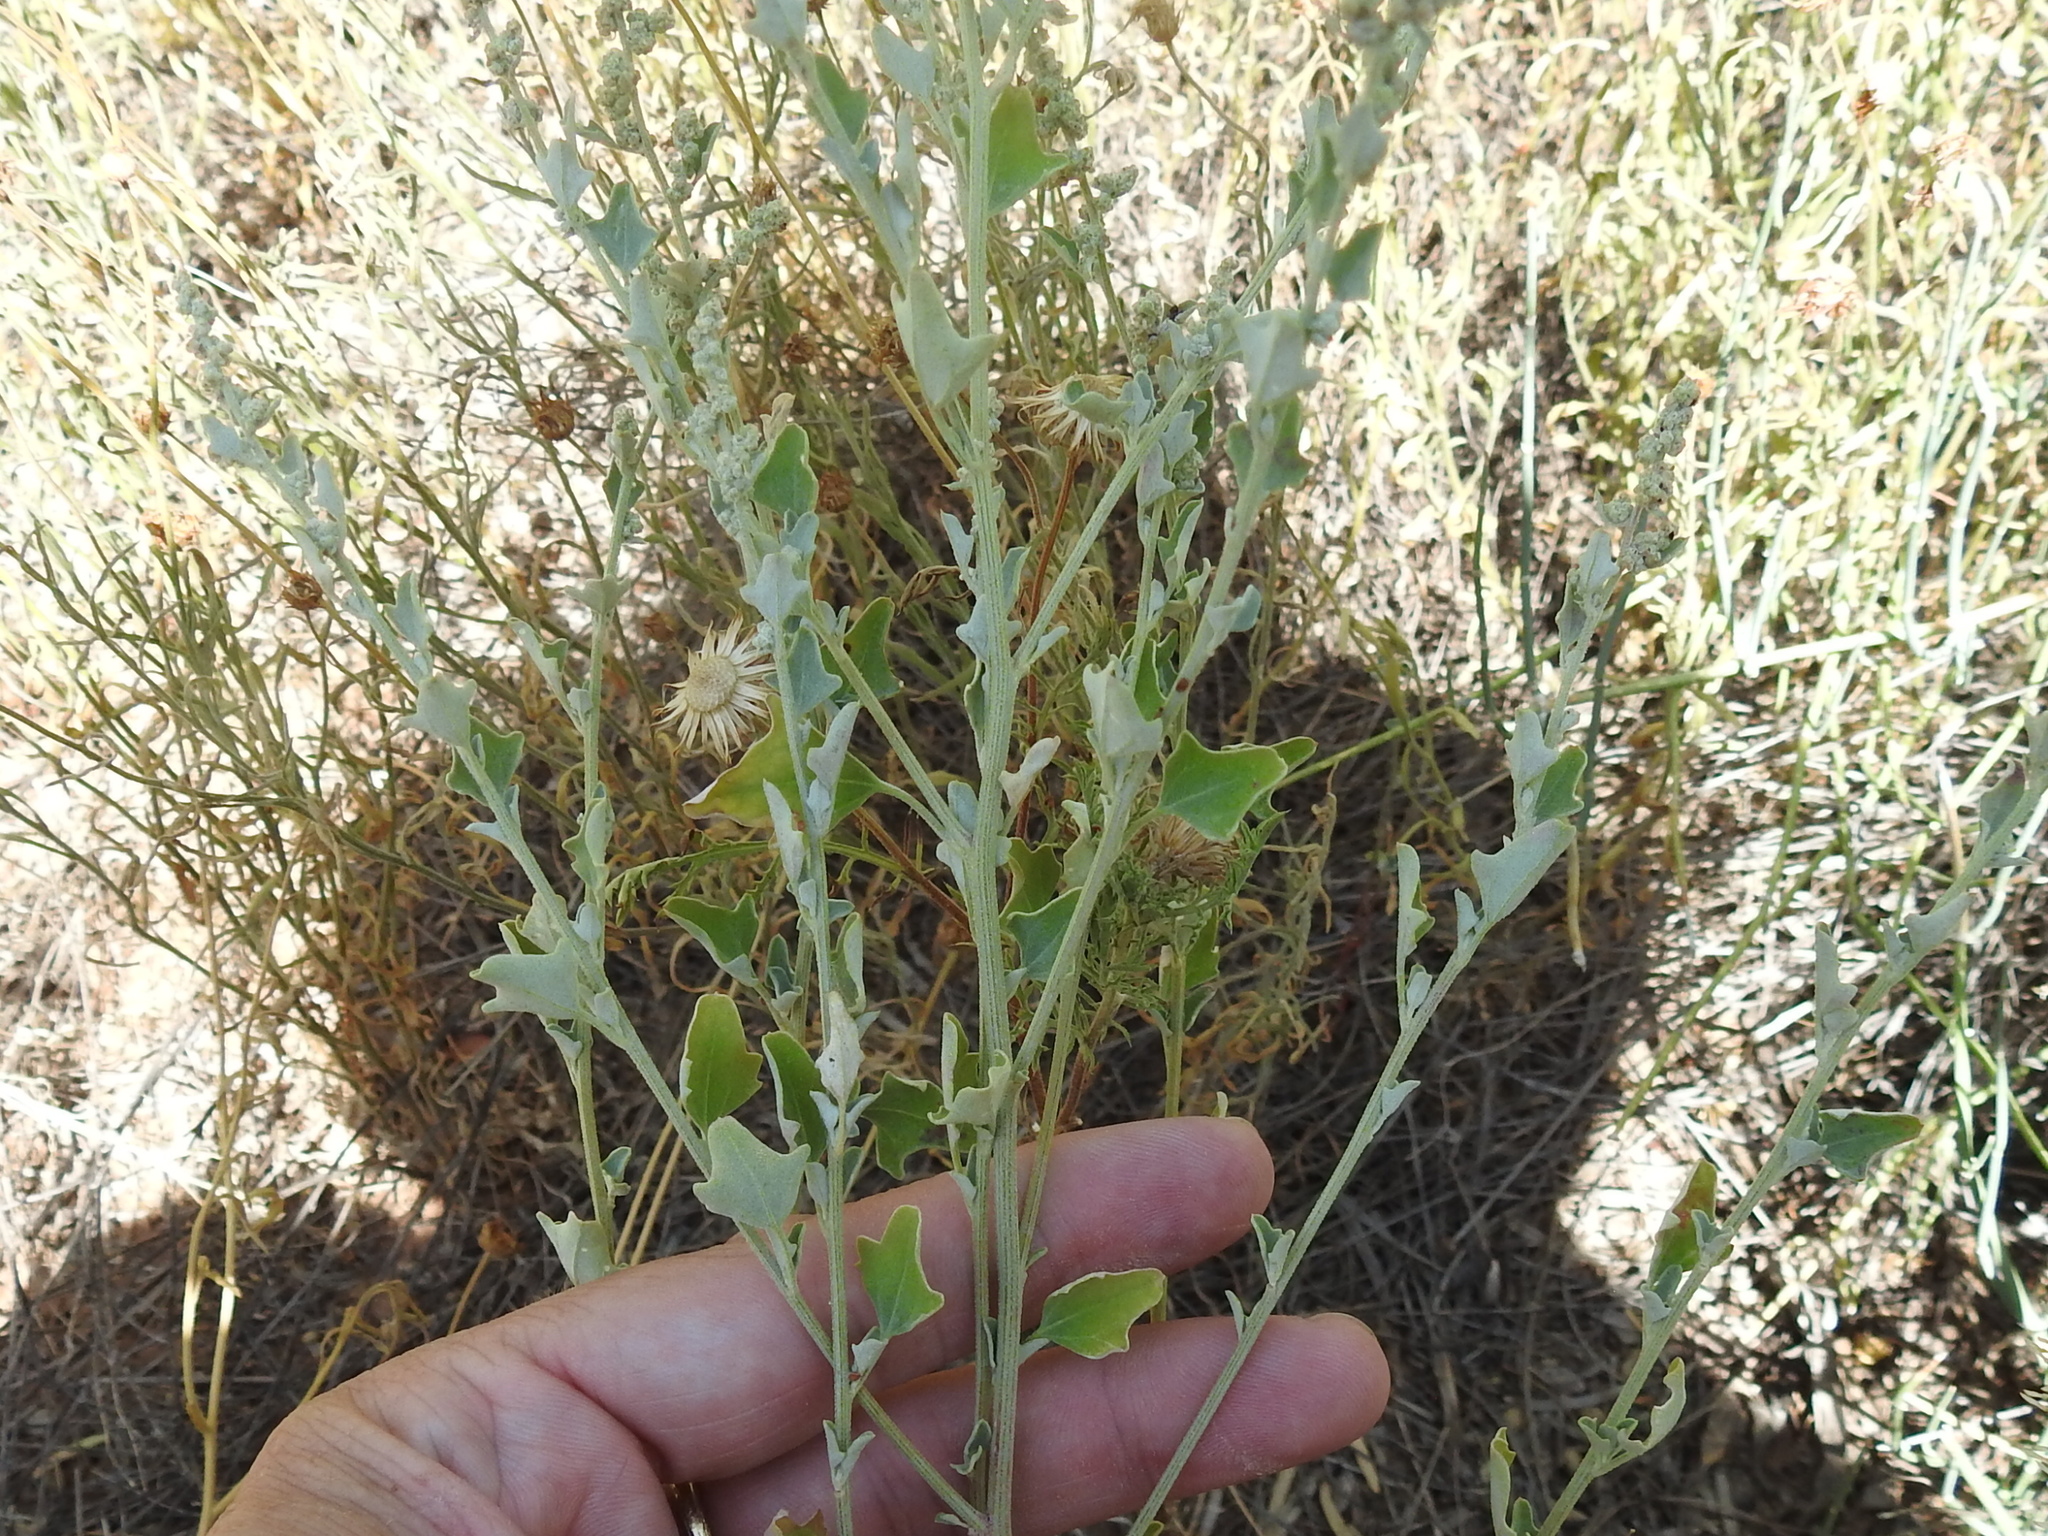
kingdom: Plantae
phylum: Tracheophyta
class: Magnoliopsida
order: Caryophyllales
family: Amaranthaceae
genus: Chenopodium
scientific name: Chenopodium incanum
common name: Hoary goosefoot
